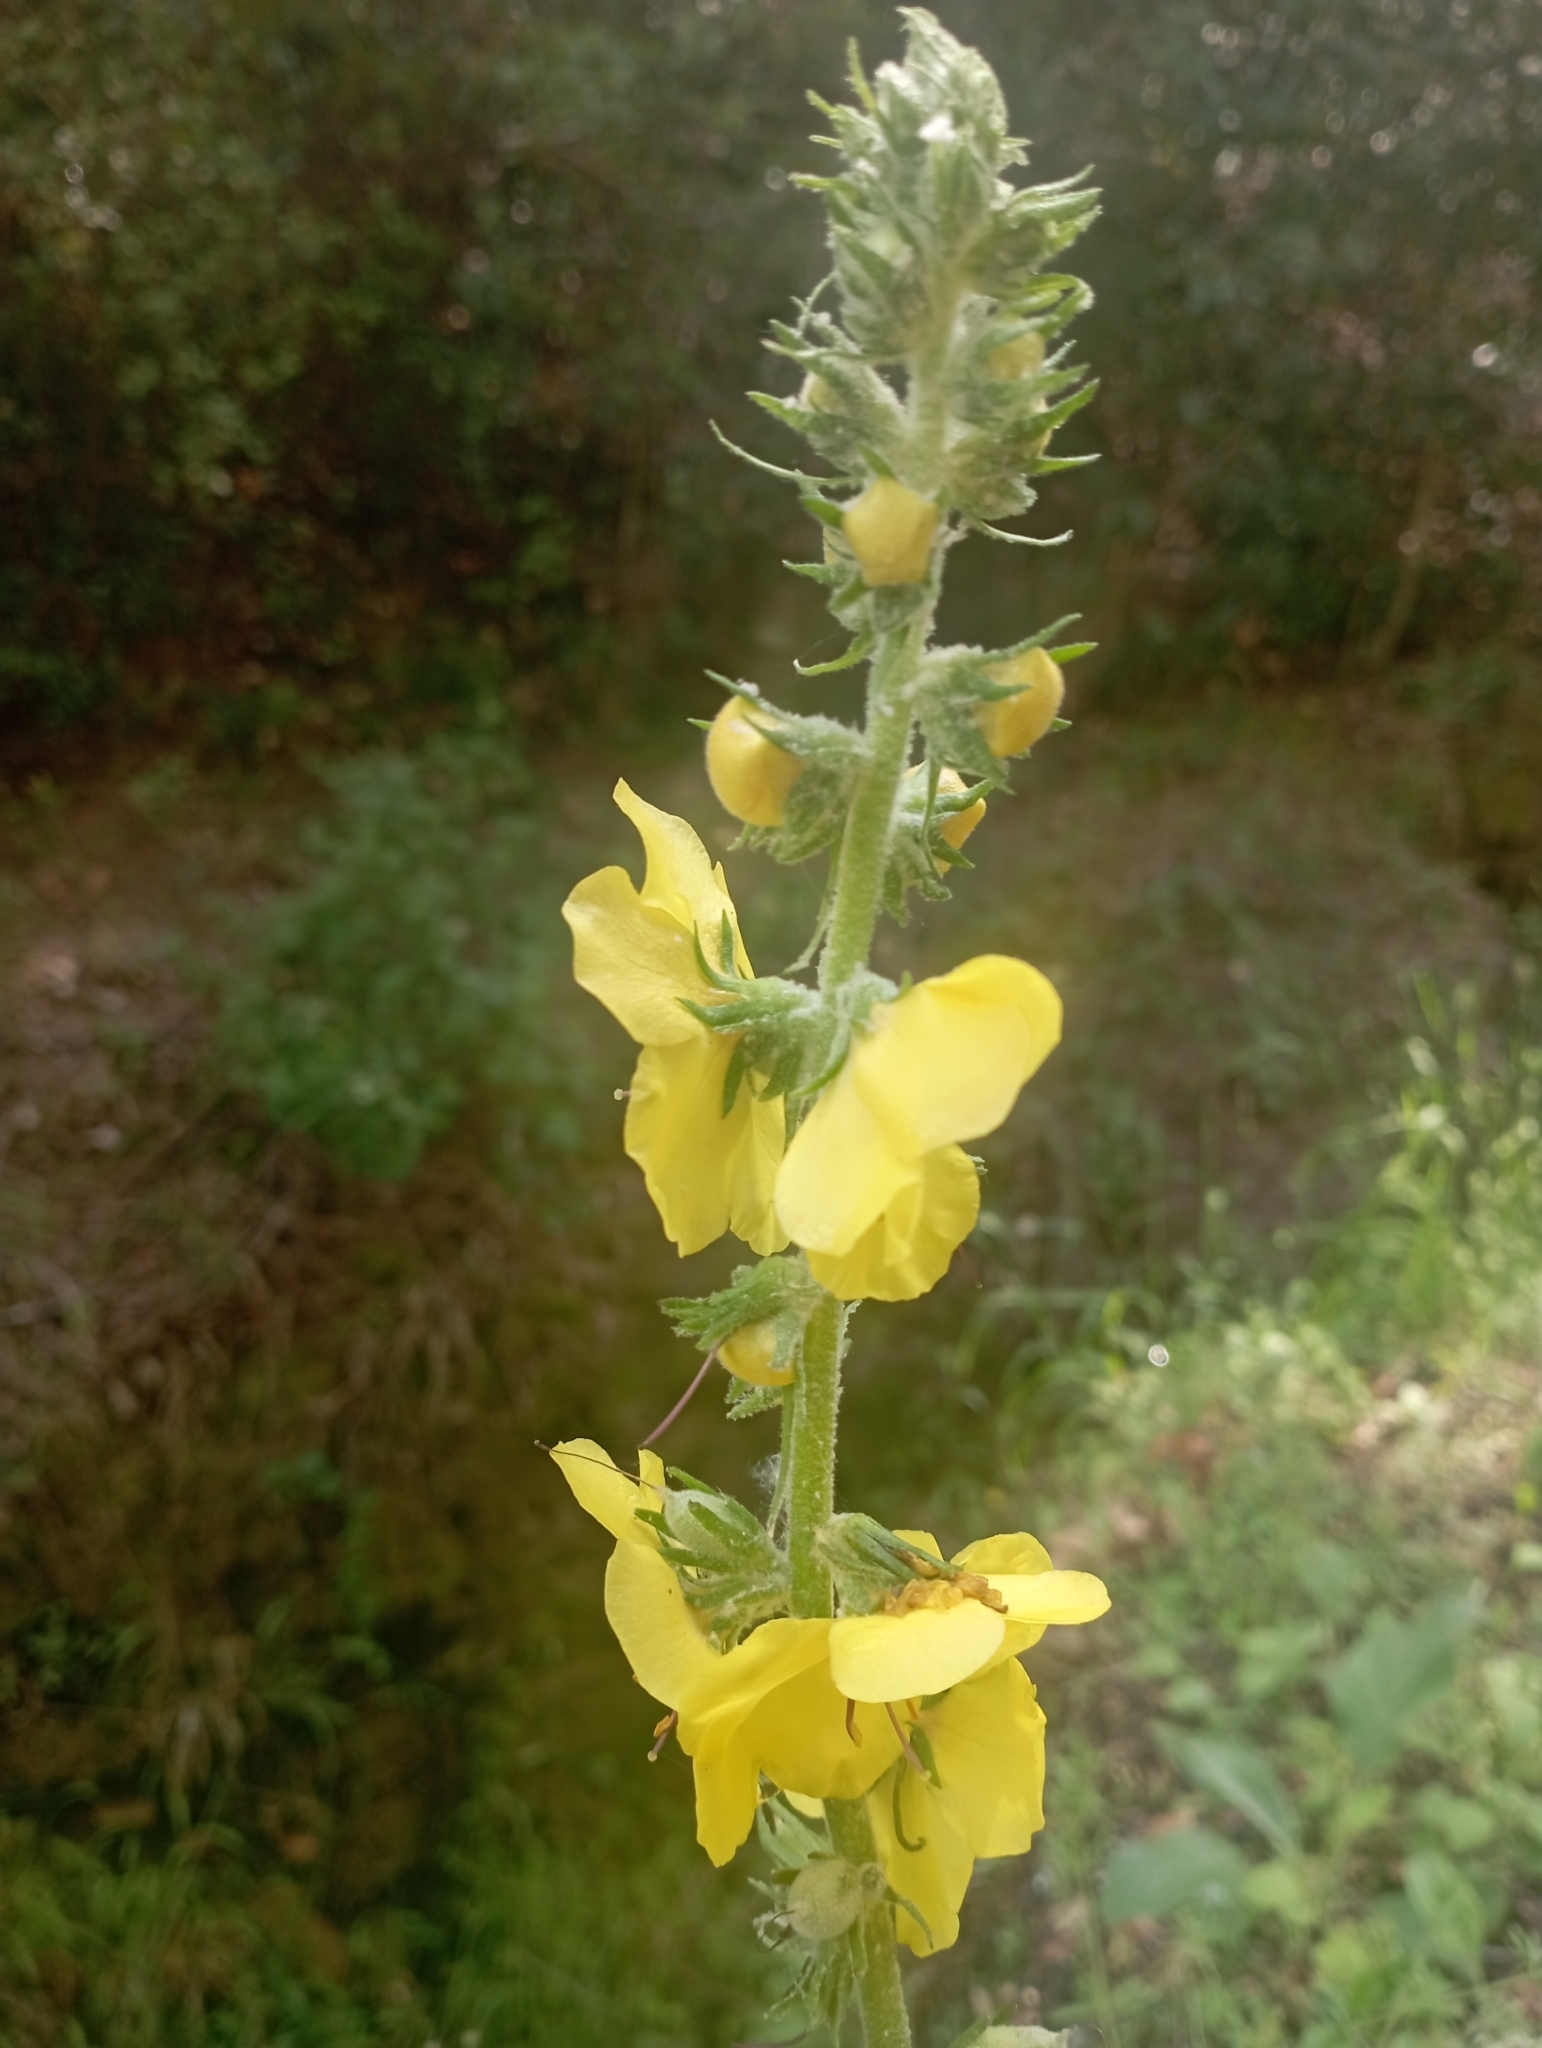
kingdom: Plantae
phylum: Tracheophyta
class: Magnoliopsida
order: Lamiales
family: Scrophulariaceae
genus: Verbascum
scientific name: Verbascum boerhavii
